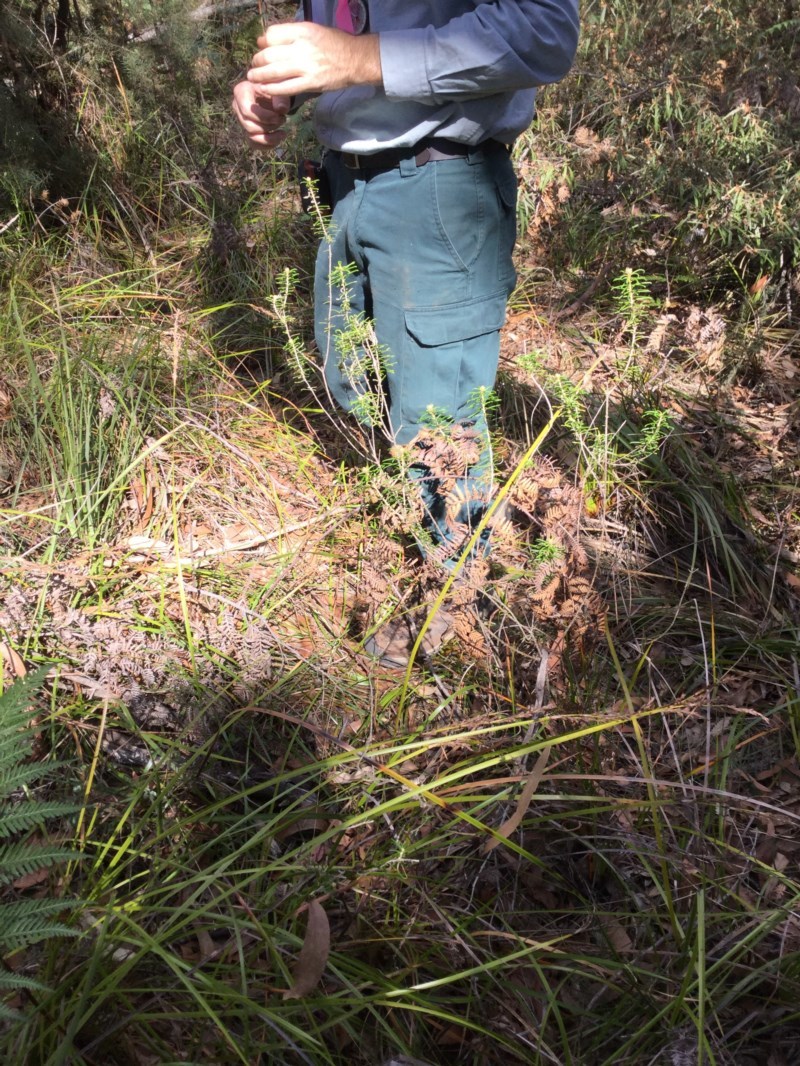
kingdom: Plantae
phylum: Tracheophyta
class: Magnoliopsida
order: Apiales
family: Araliaceae
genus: Astrotricha
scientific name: Astrotricha
